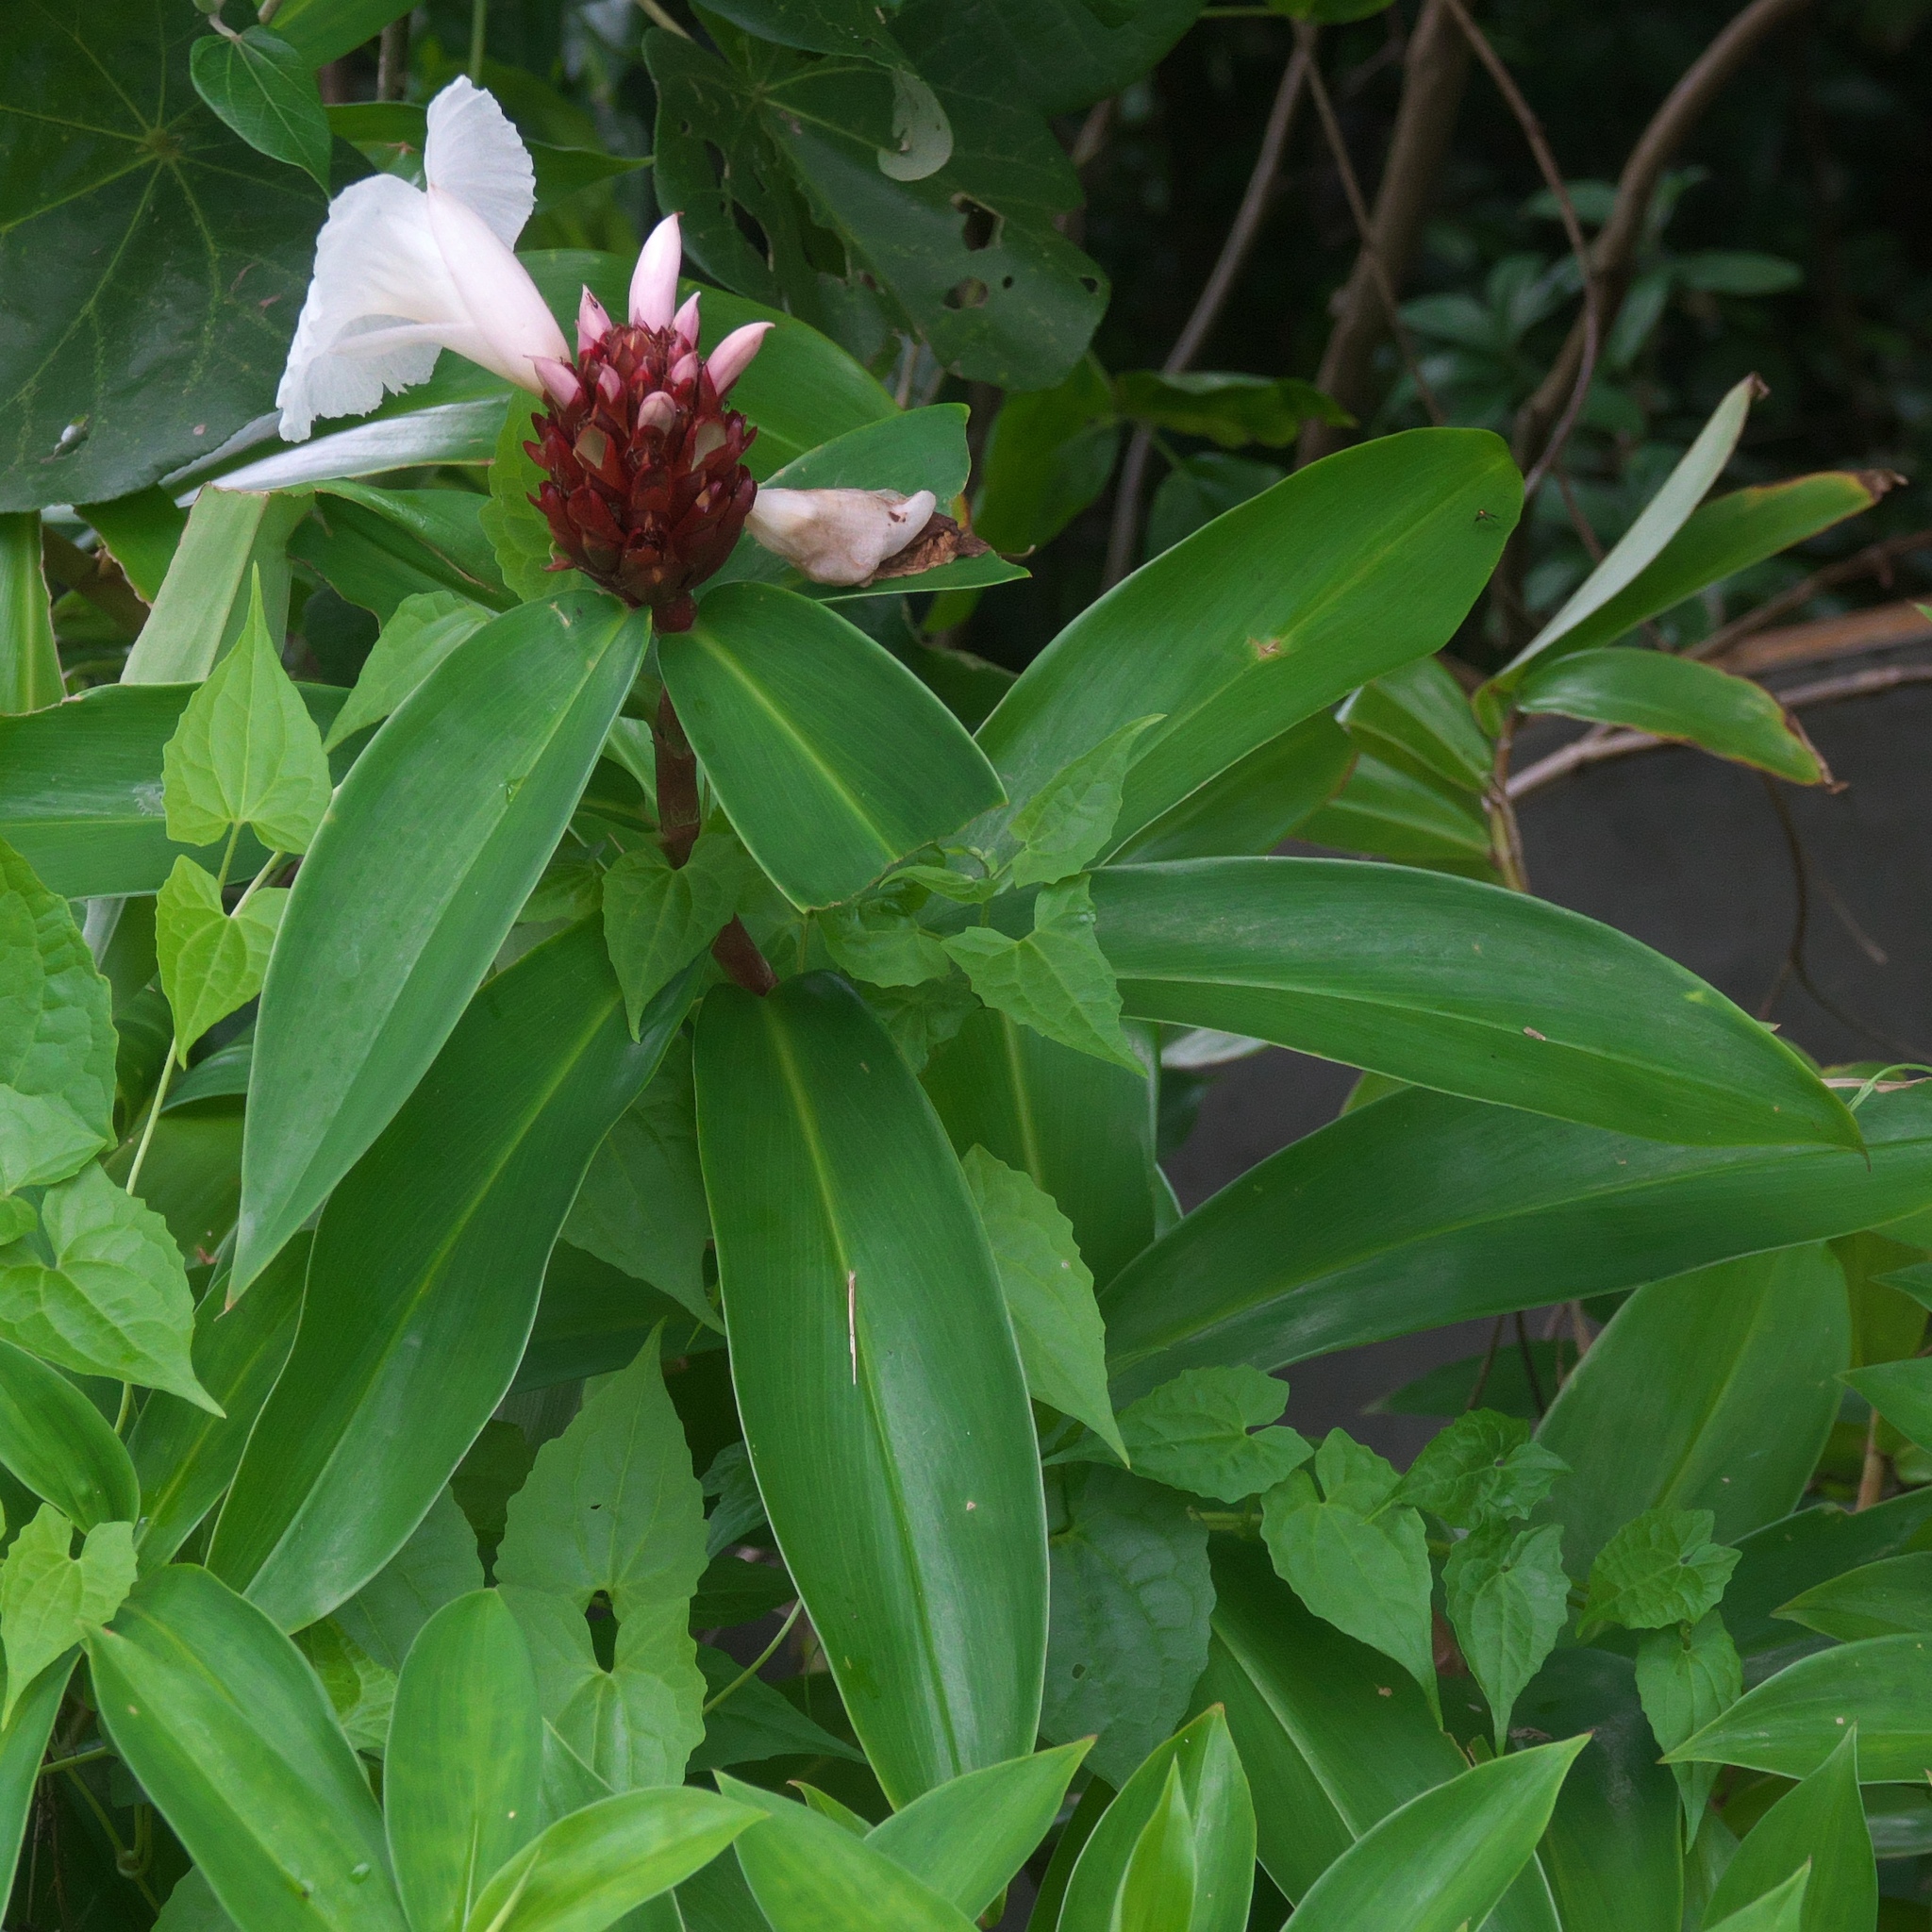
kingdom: Plantae
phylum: Tracheophyta
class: Liliopsida
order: Zingiberales
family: Costaceae
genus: Hellenia
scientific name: Hellenia speciosa
